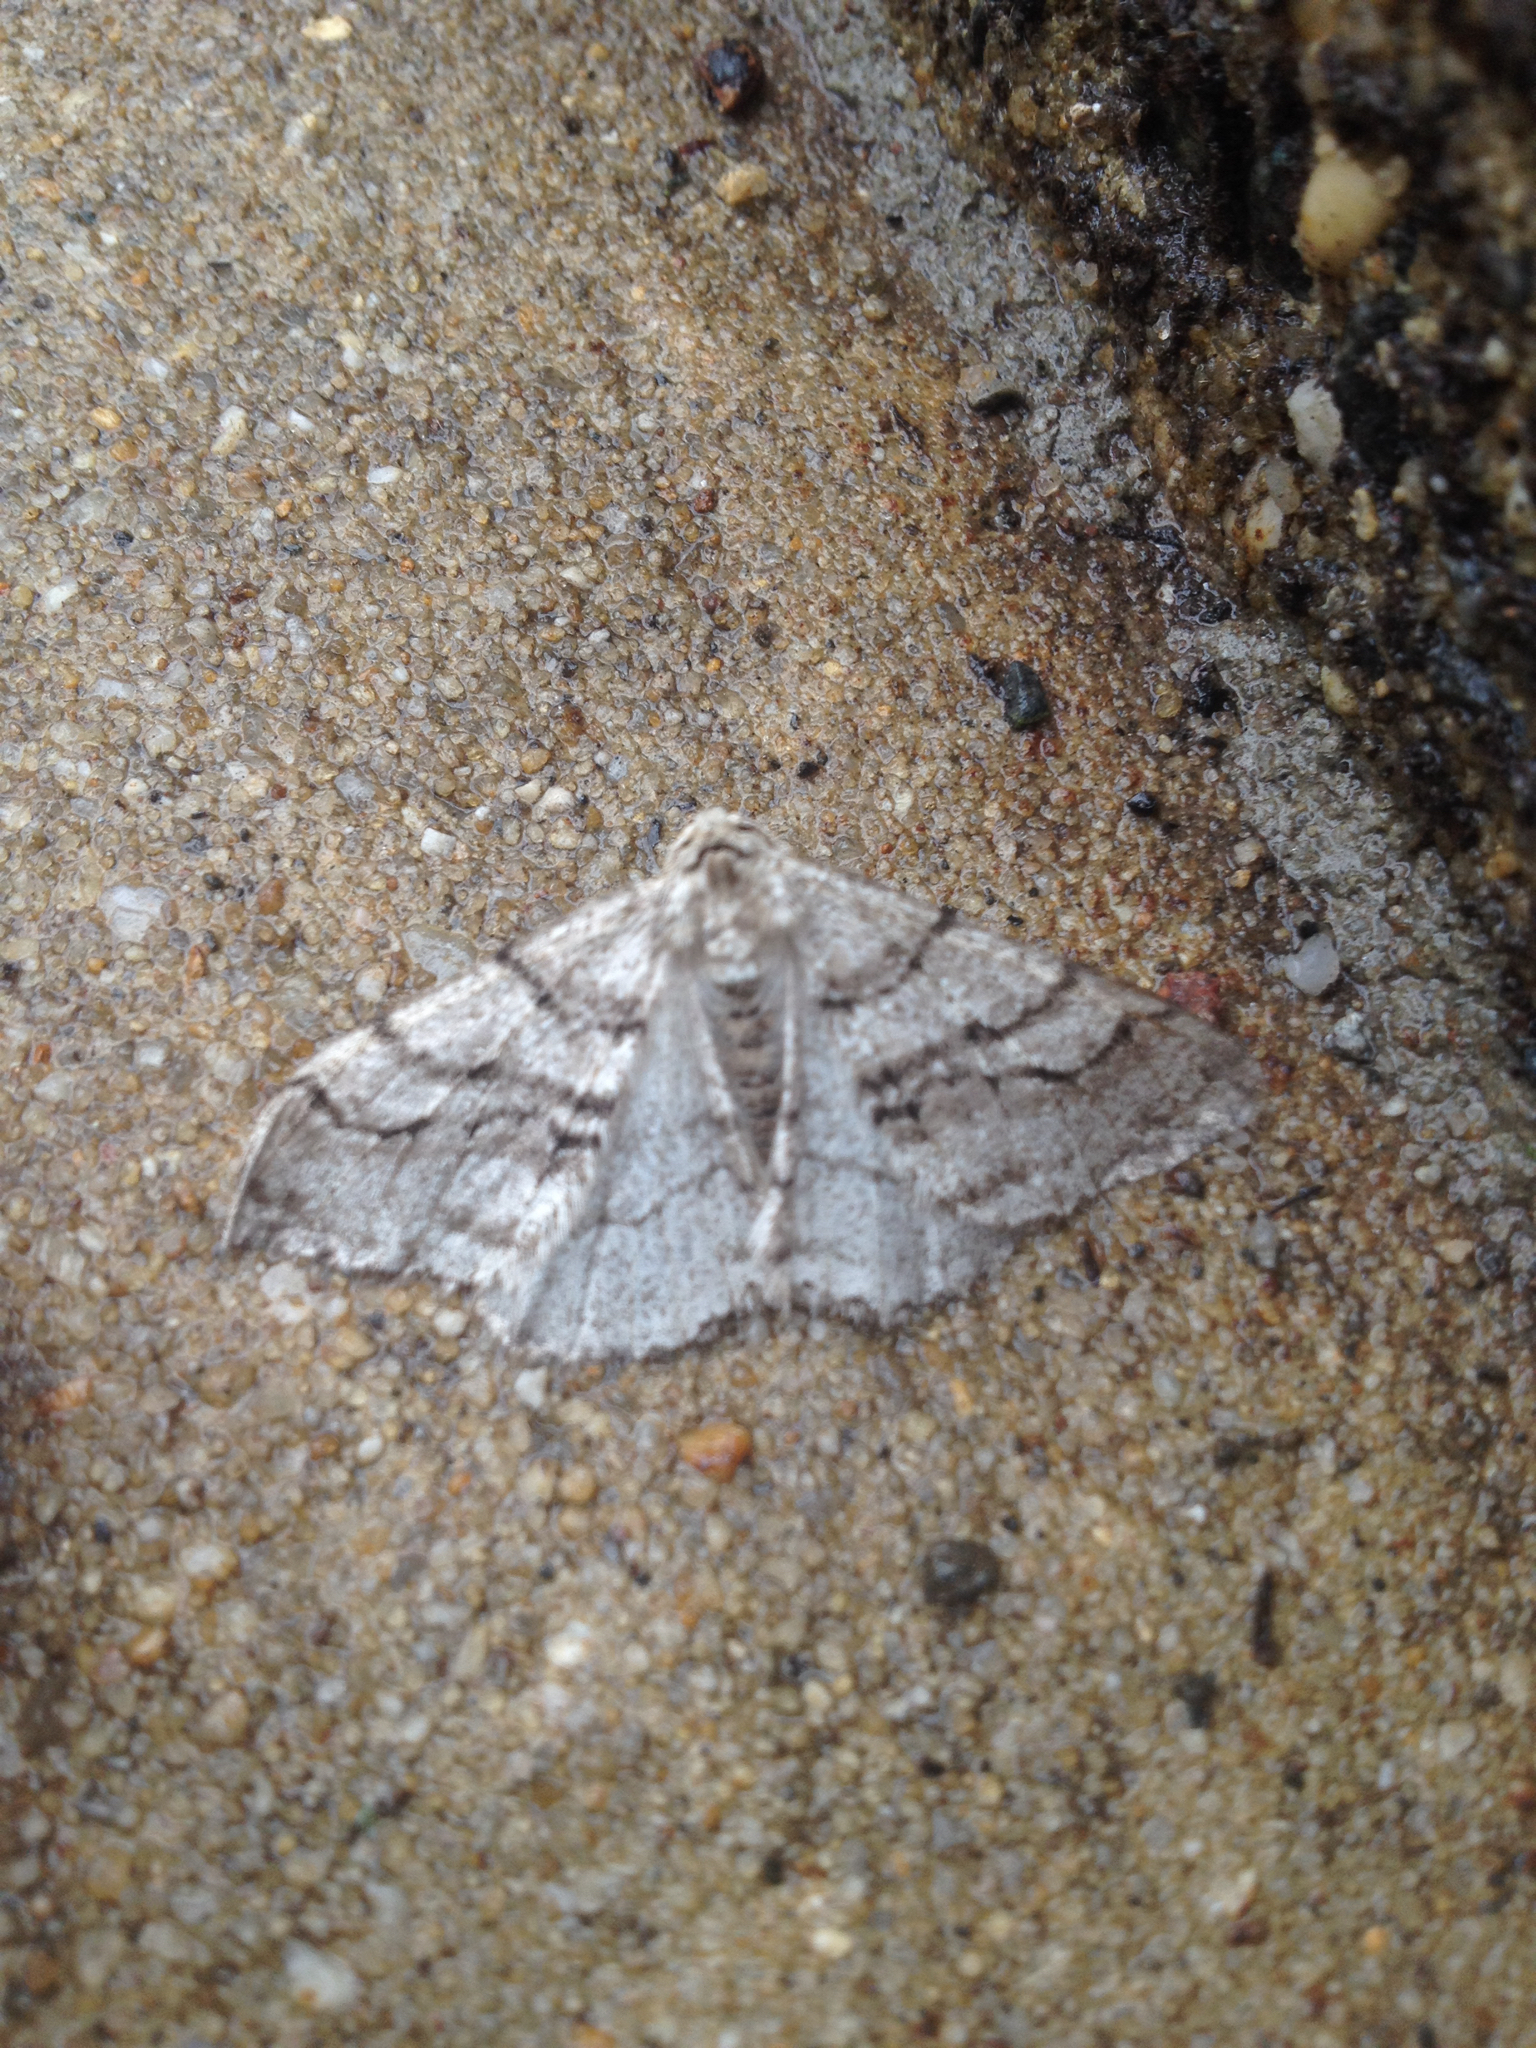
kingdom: Animalia
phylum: Arthropoda
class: Insecta
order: Lepidoptera
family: Geometridae
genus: Phigalia
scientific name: Phigalia titea
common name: Spiny looper
